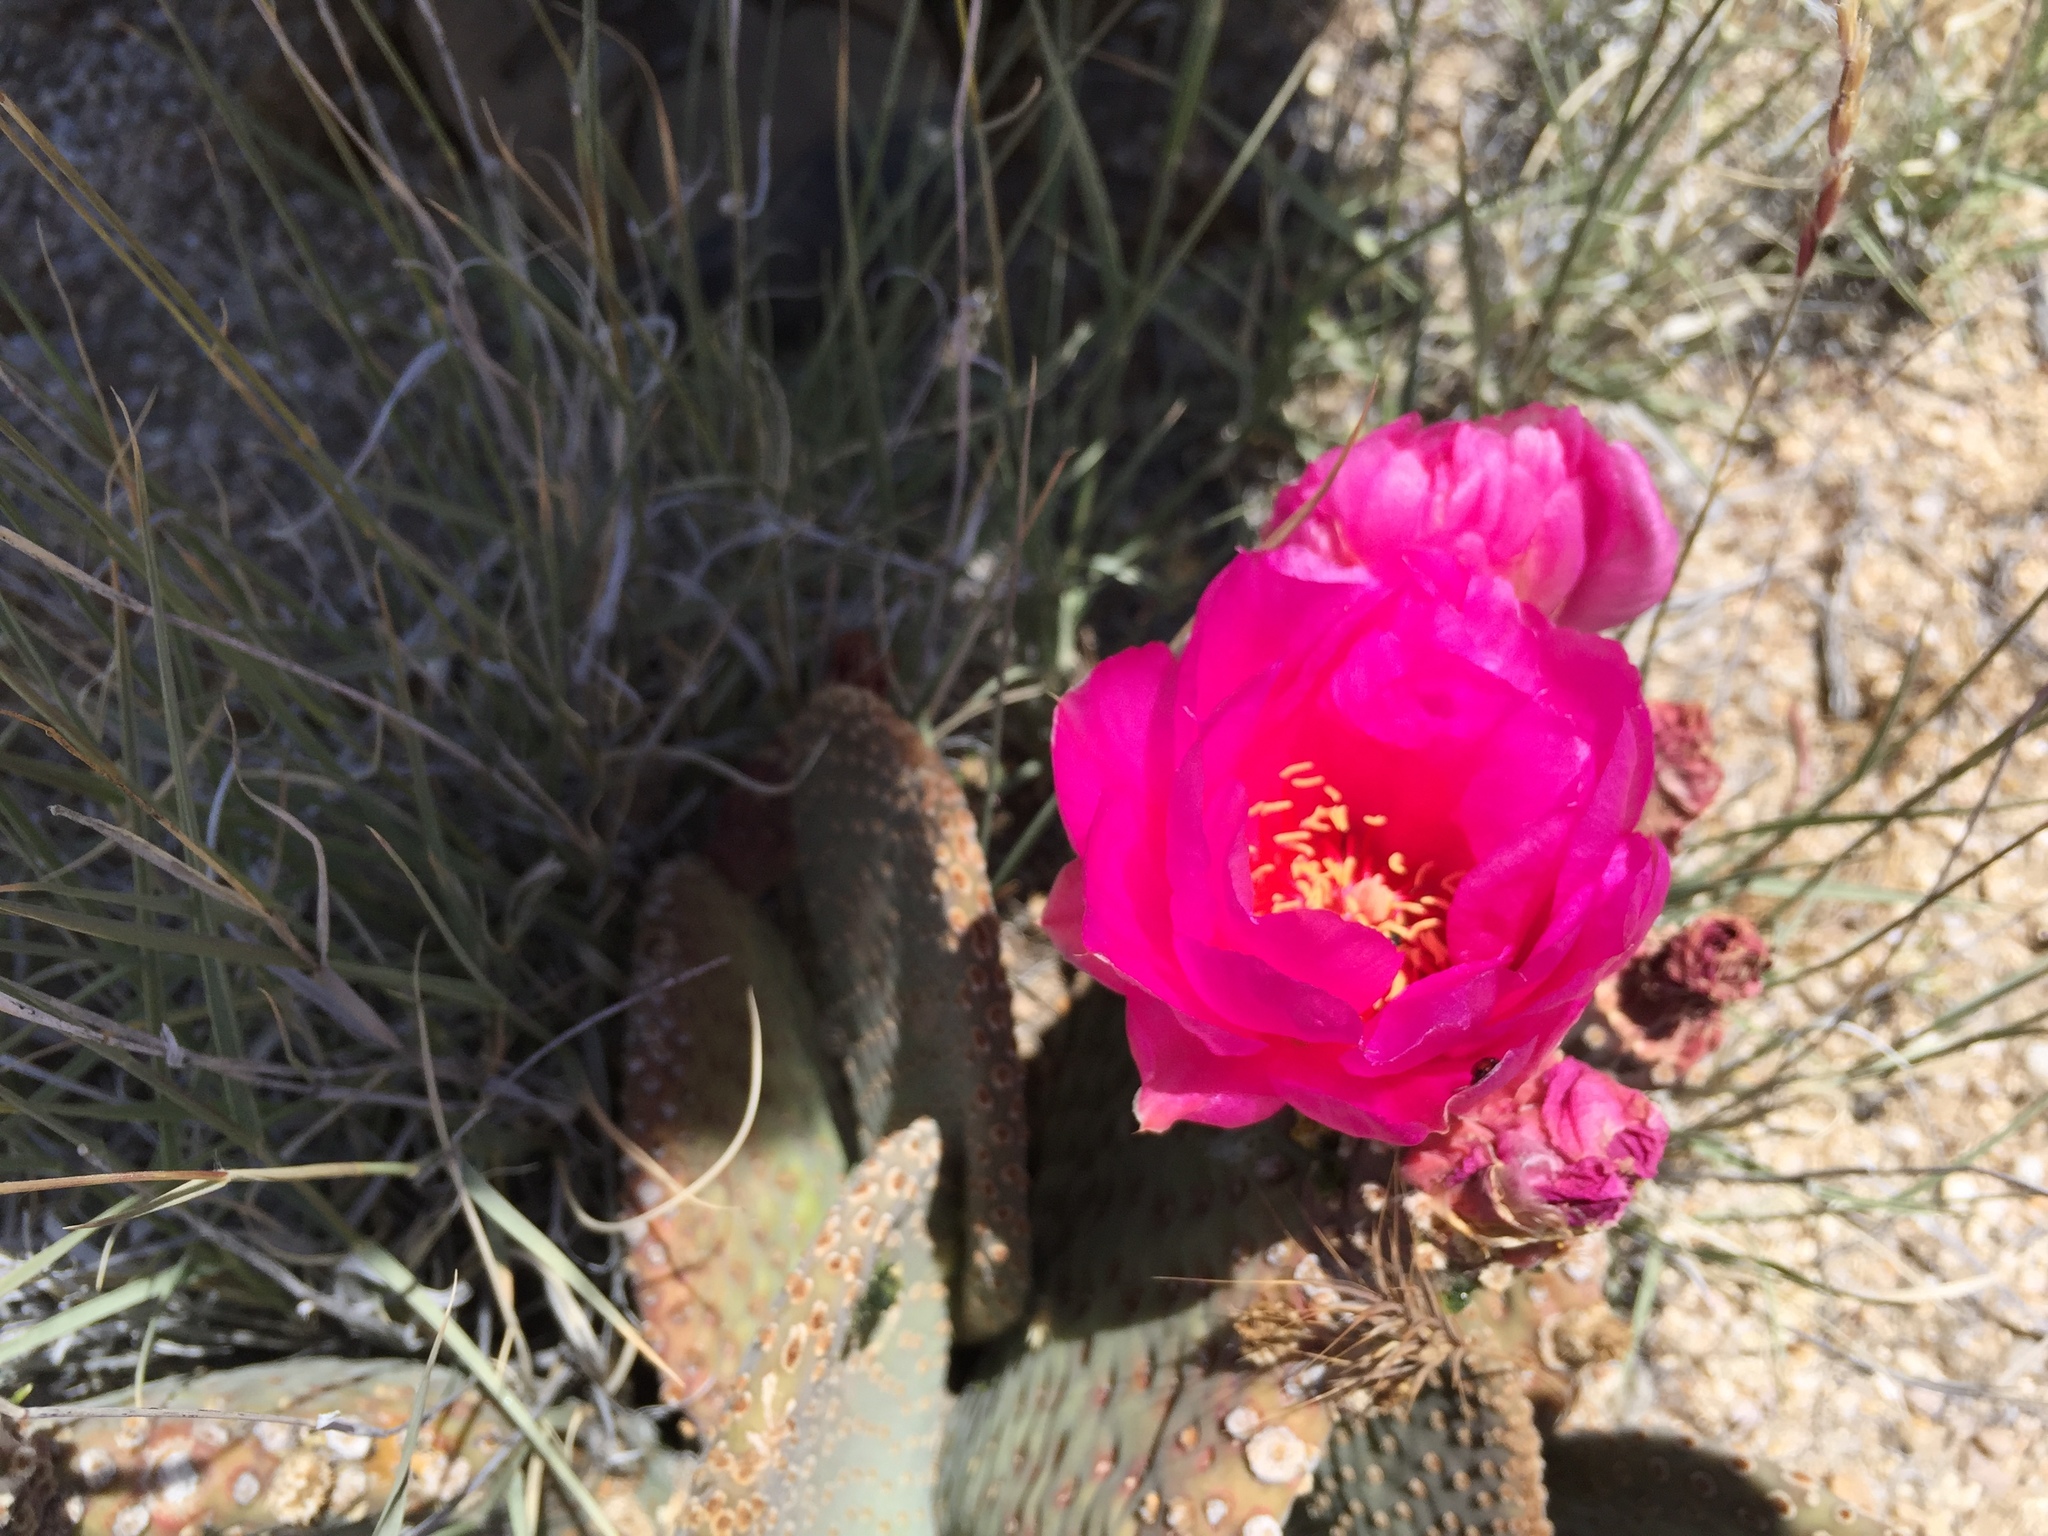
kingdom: Plantae
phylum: Tracheophyta
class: Magnoliopsida
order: Caryophyllales
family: Cactaceae
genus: Opuntia
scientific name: Opuntia basilaris
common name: Beavertail prickly-pear
